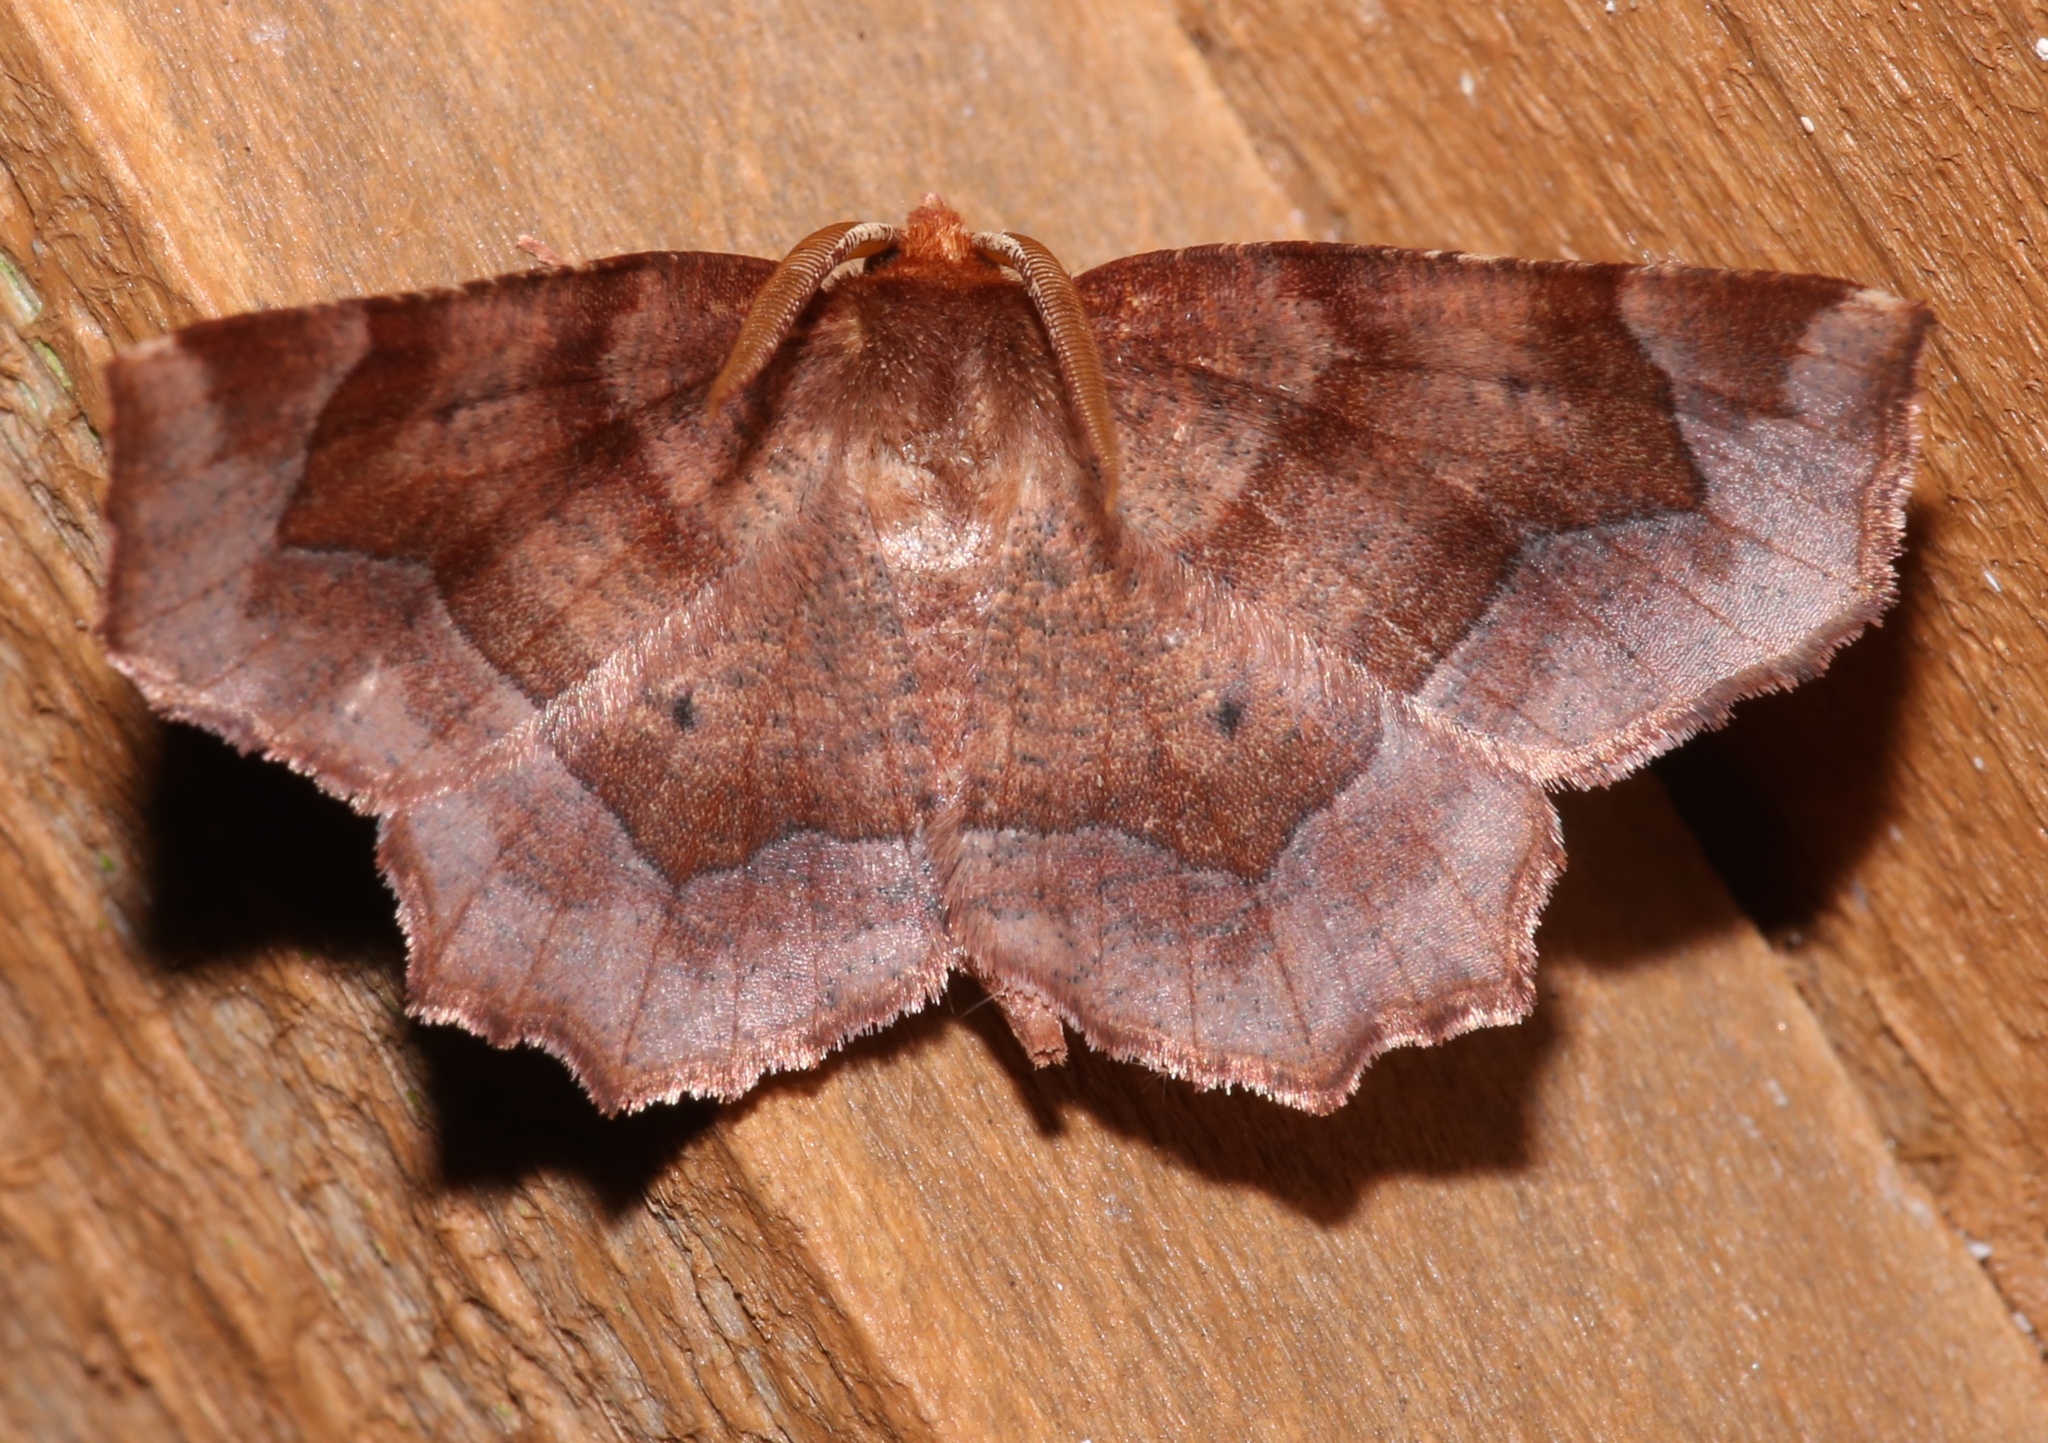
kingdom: Animalia
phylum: Arthropoda
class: Insecta
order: Lepidoptera
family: Geometridae
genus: Metarranthis
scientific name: Metarranthis homuraria
